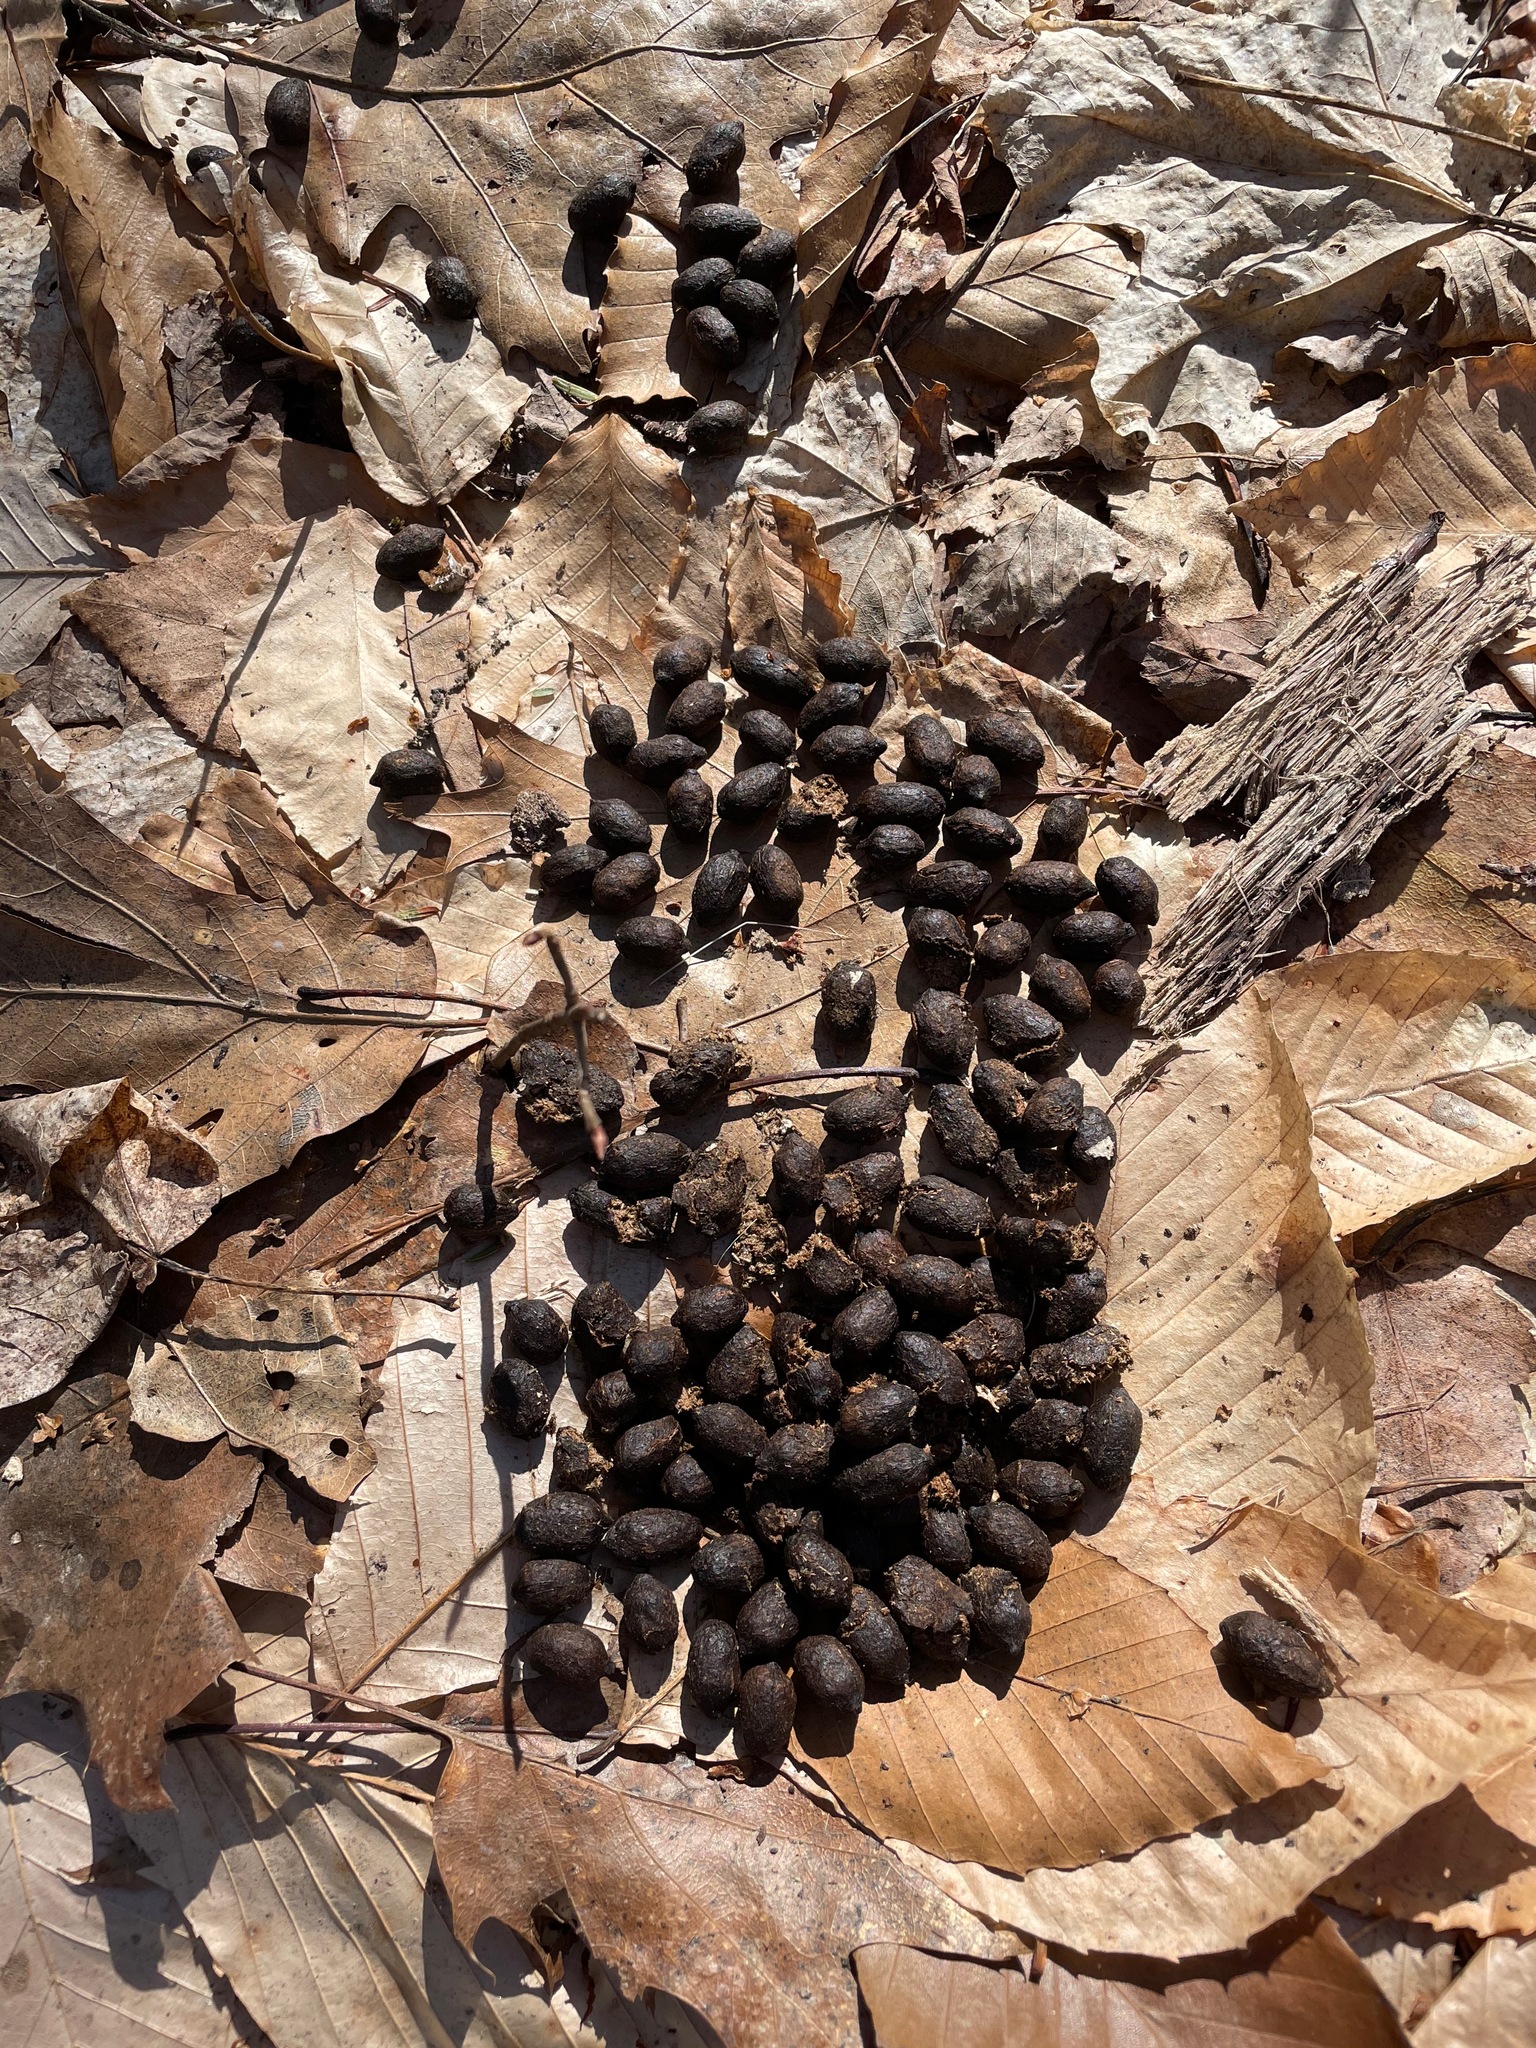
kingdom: Animalia
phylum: Chordata
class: Mammalia
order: Artiodactyla
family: Cervidae
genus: Odocoileus
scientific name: Odocoileus virginianus
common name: White-tailed deer
